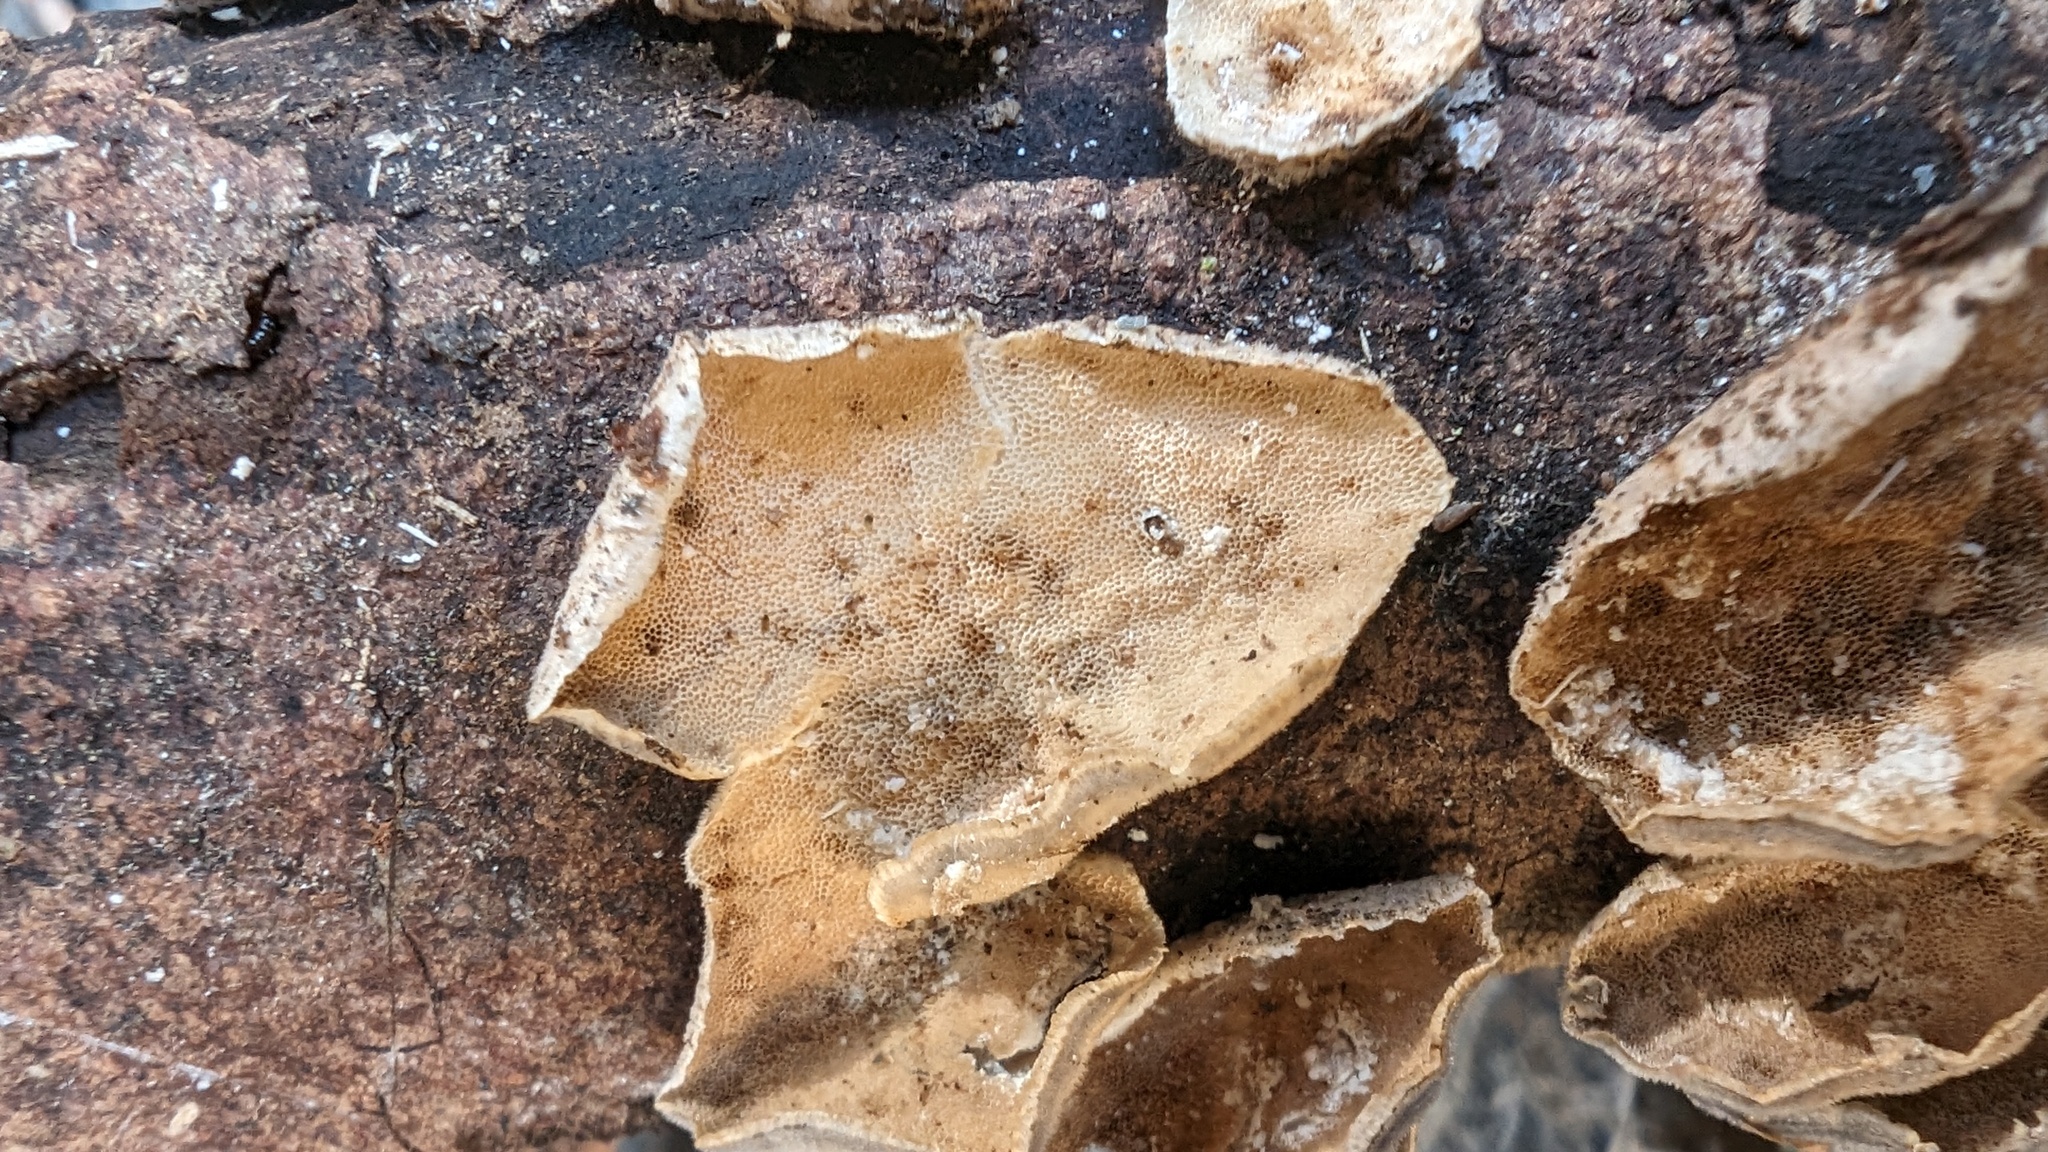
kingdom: Fungi
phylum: Basidiomycota
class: Agaricomycetes
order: Polyporales
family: Polyporaceae
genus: Trametes
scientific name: Trametes versicolor
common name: Turkeytail
